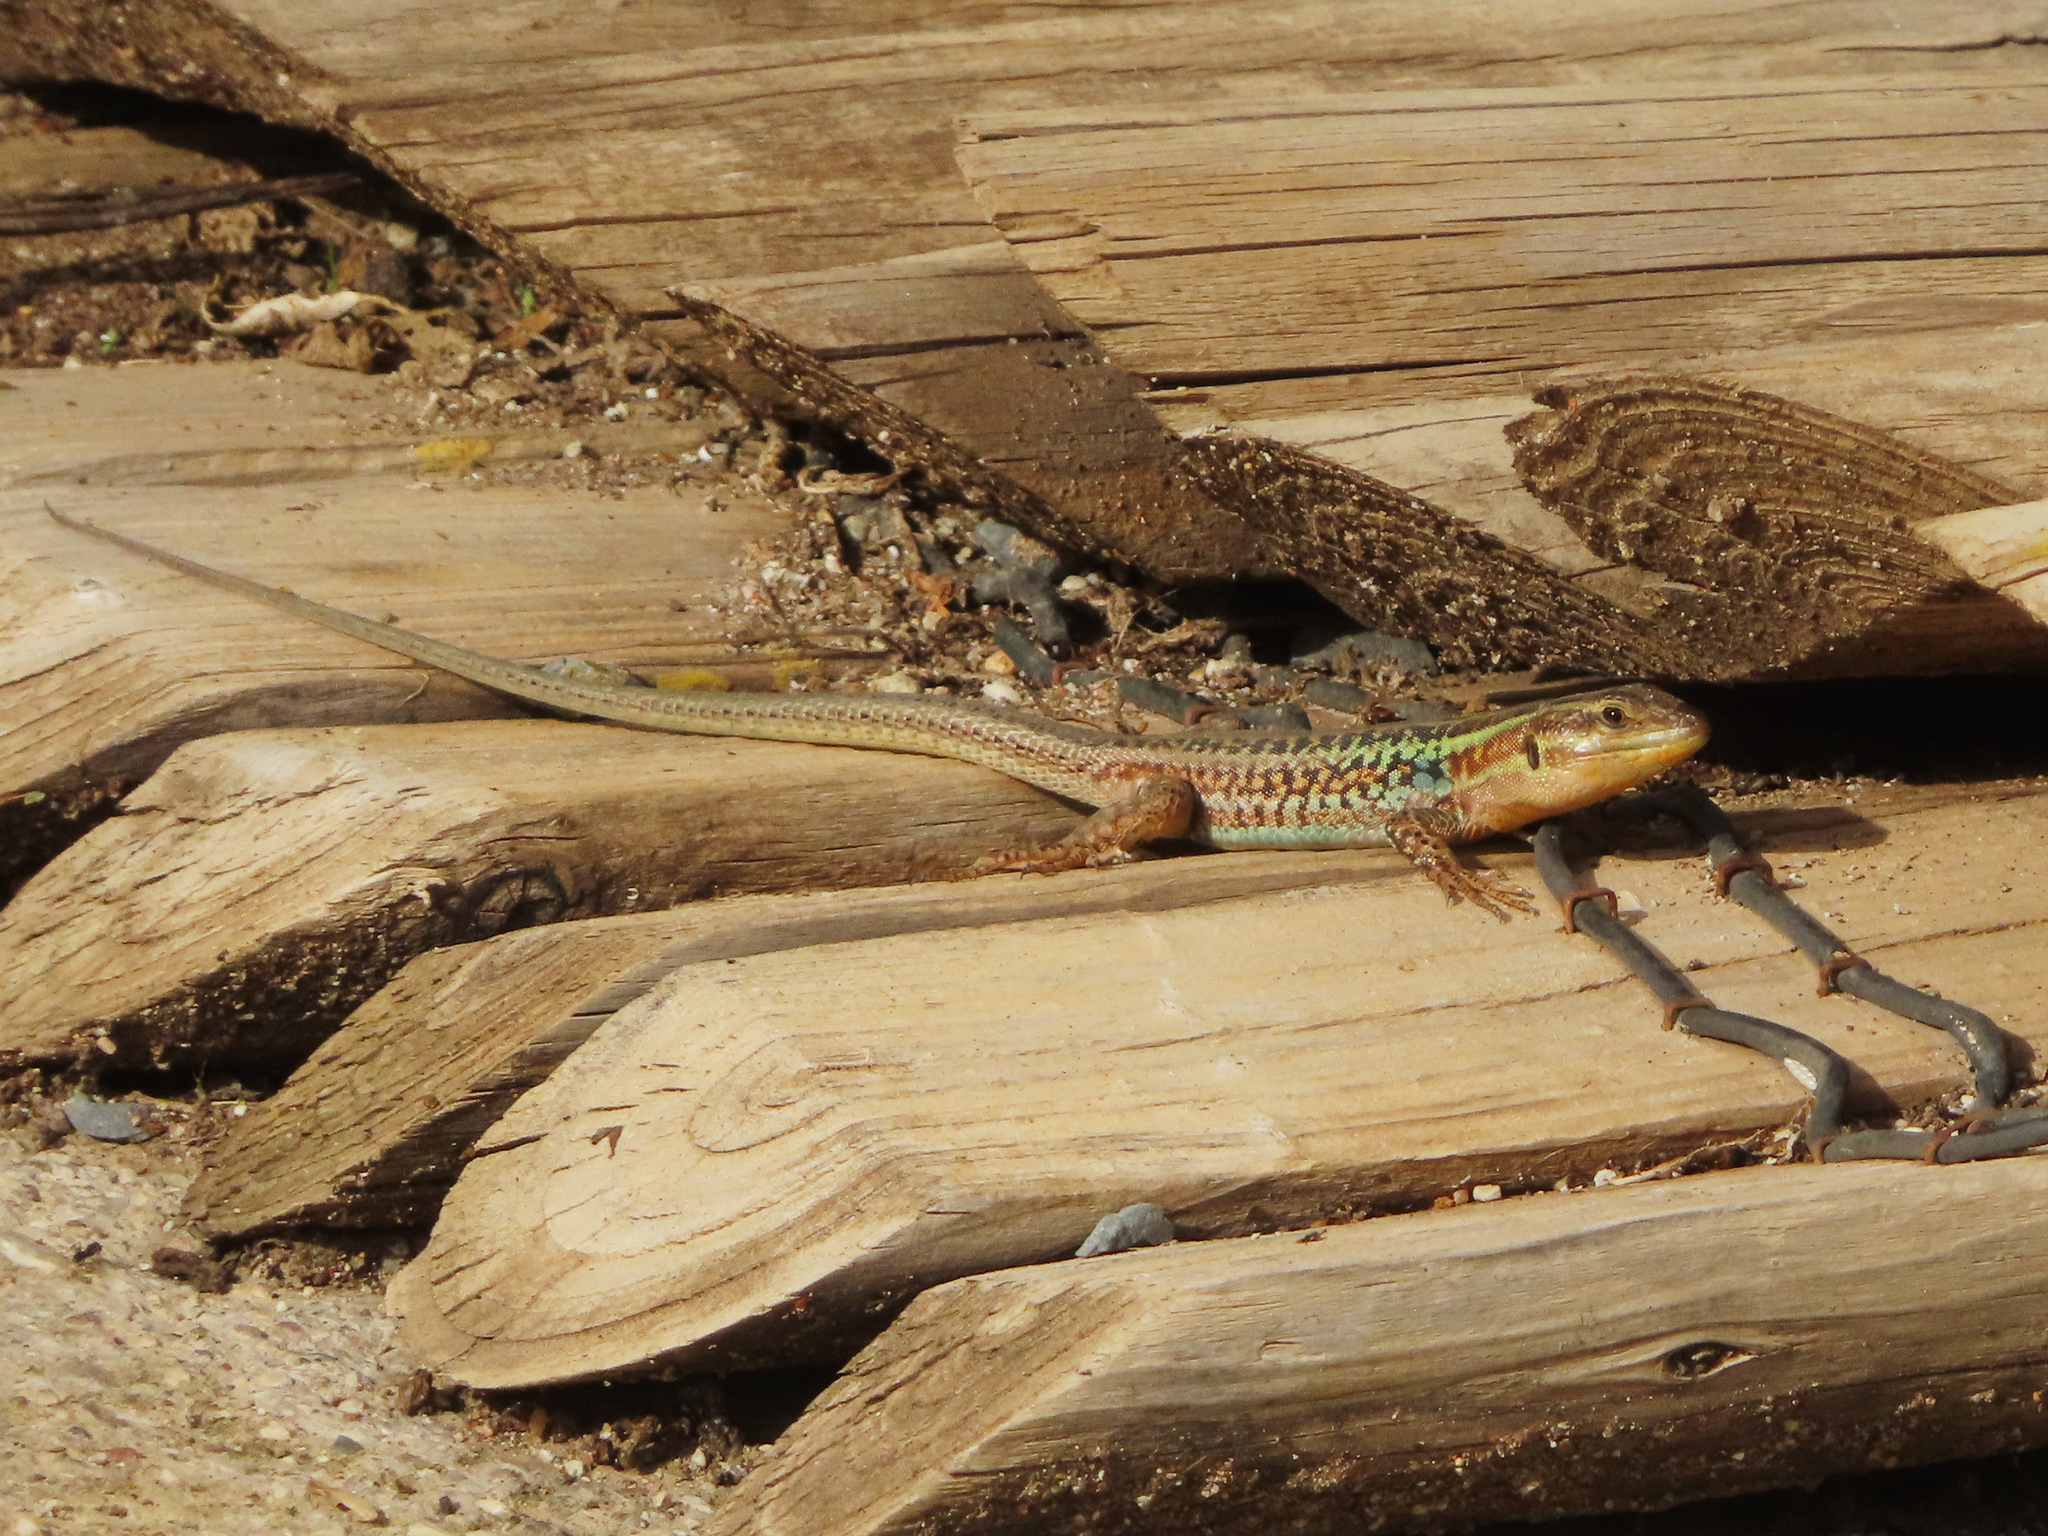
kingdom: Animalia
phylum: Chordata
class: Squamata
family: Lacertidae
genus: Podarcis
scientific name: Podarcis peloponnesiacus
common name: Peloponnese wall lizard
